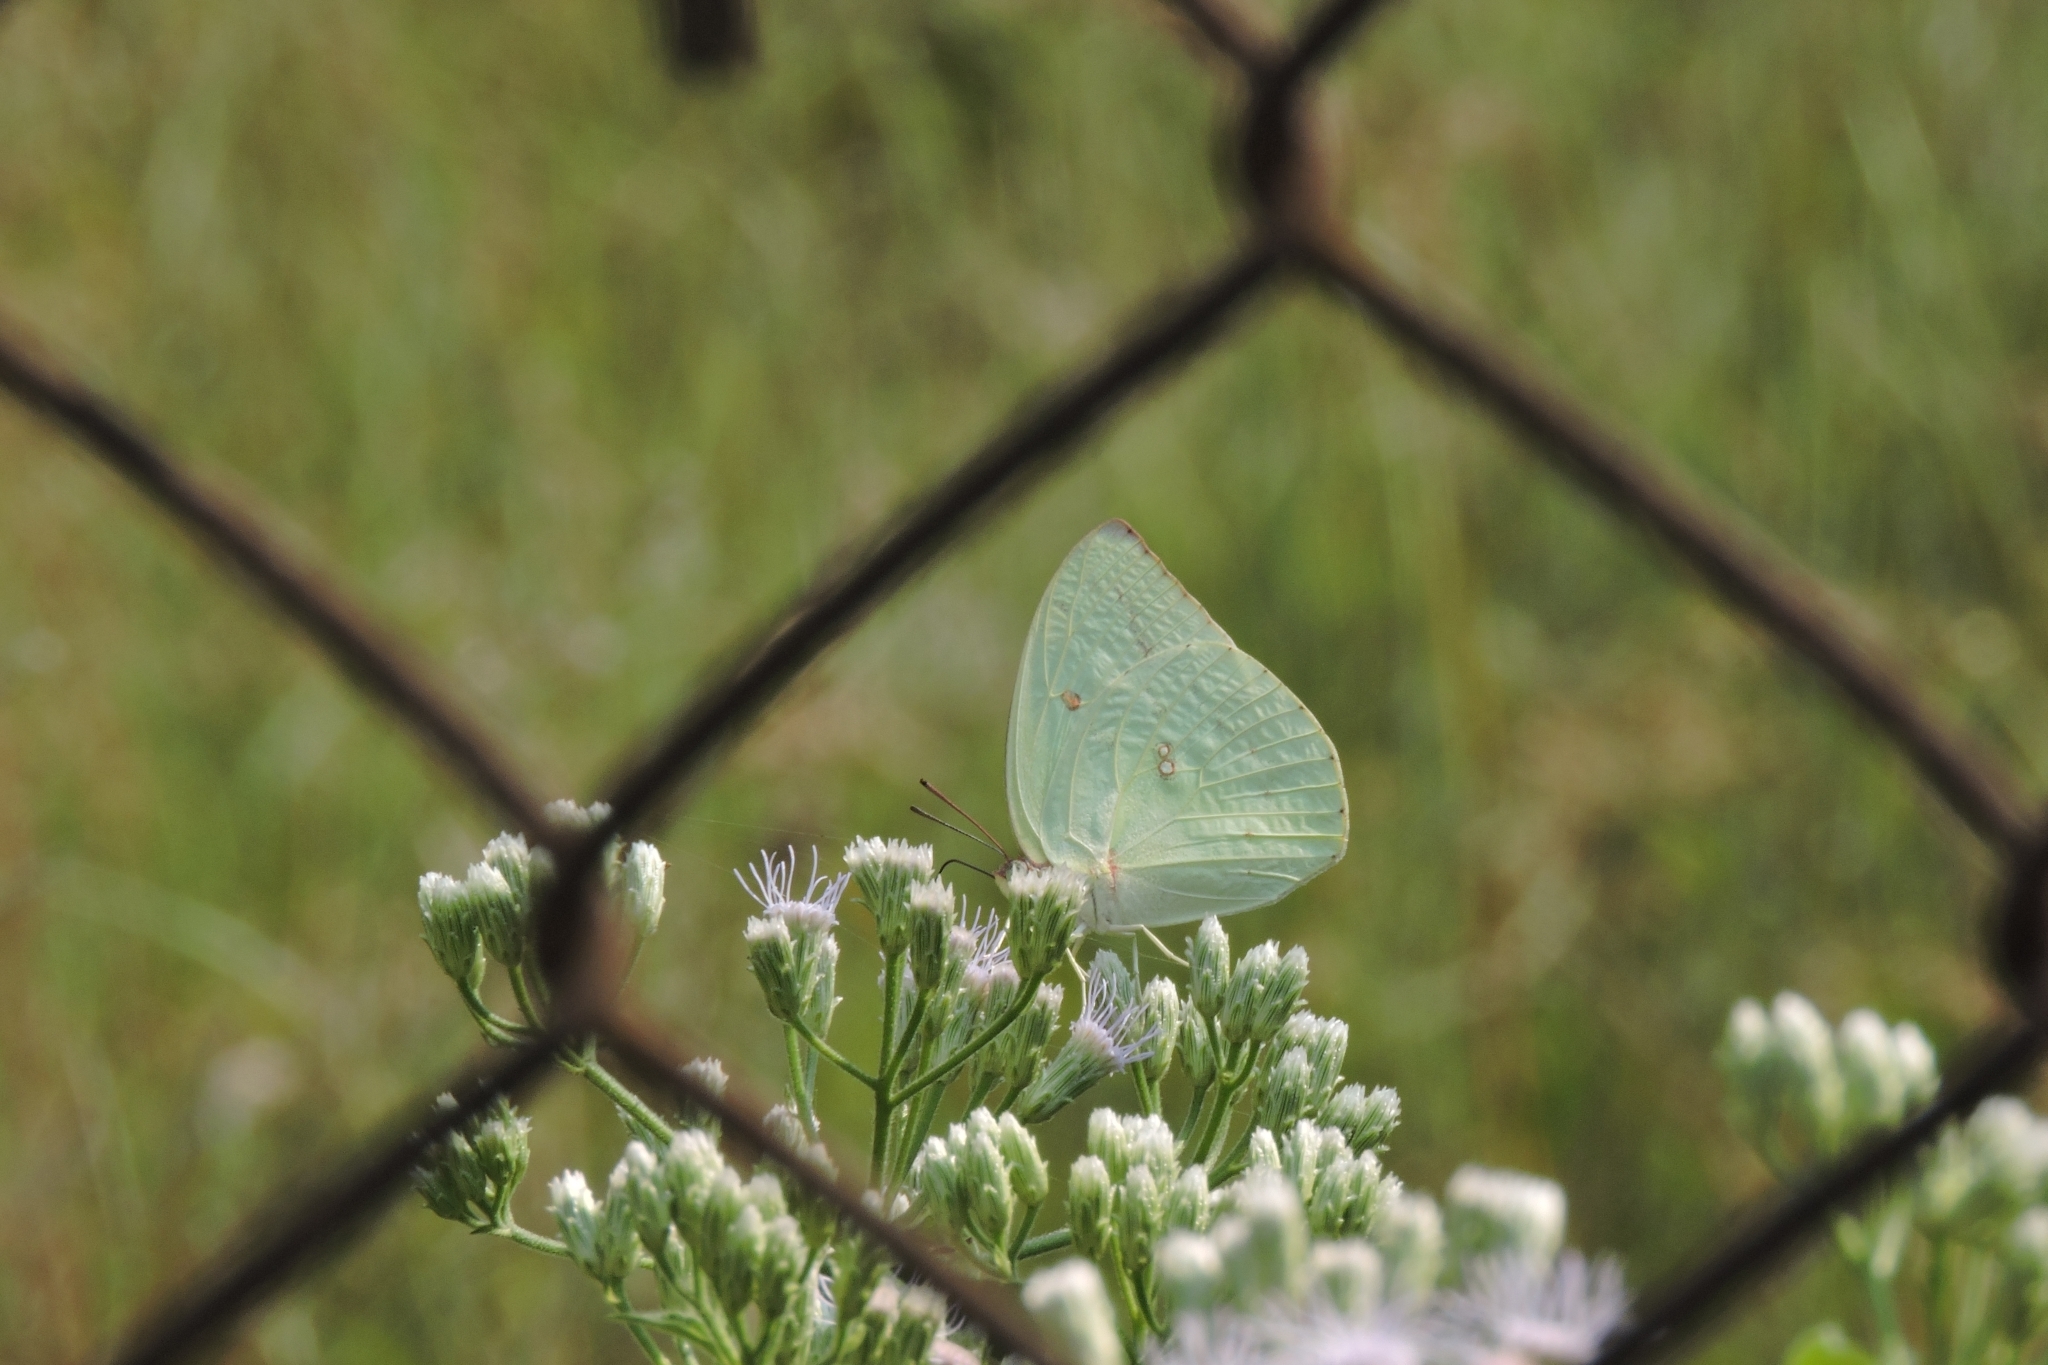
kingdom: Animalia
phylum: Arthropoda
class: Insecta
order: Lepidoptera
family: Pieridae
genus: Catopsilia
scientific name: Catopsilia pyranthe
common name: Mottled emigrant
